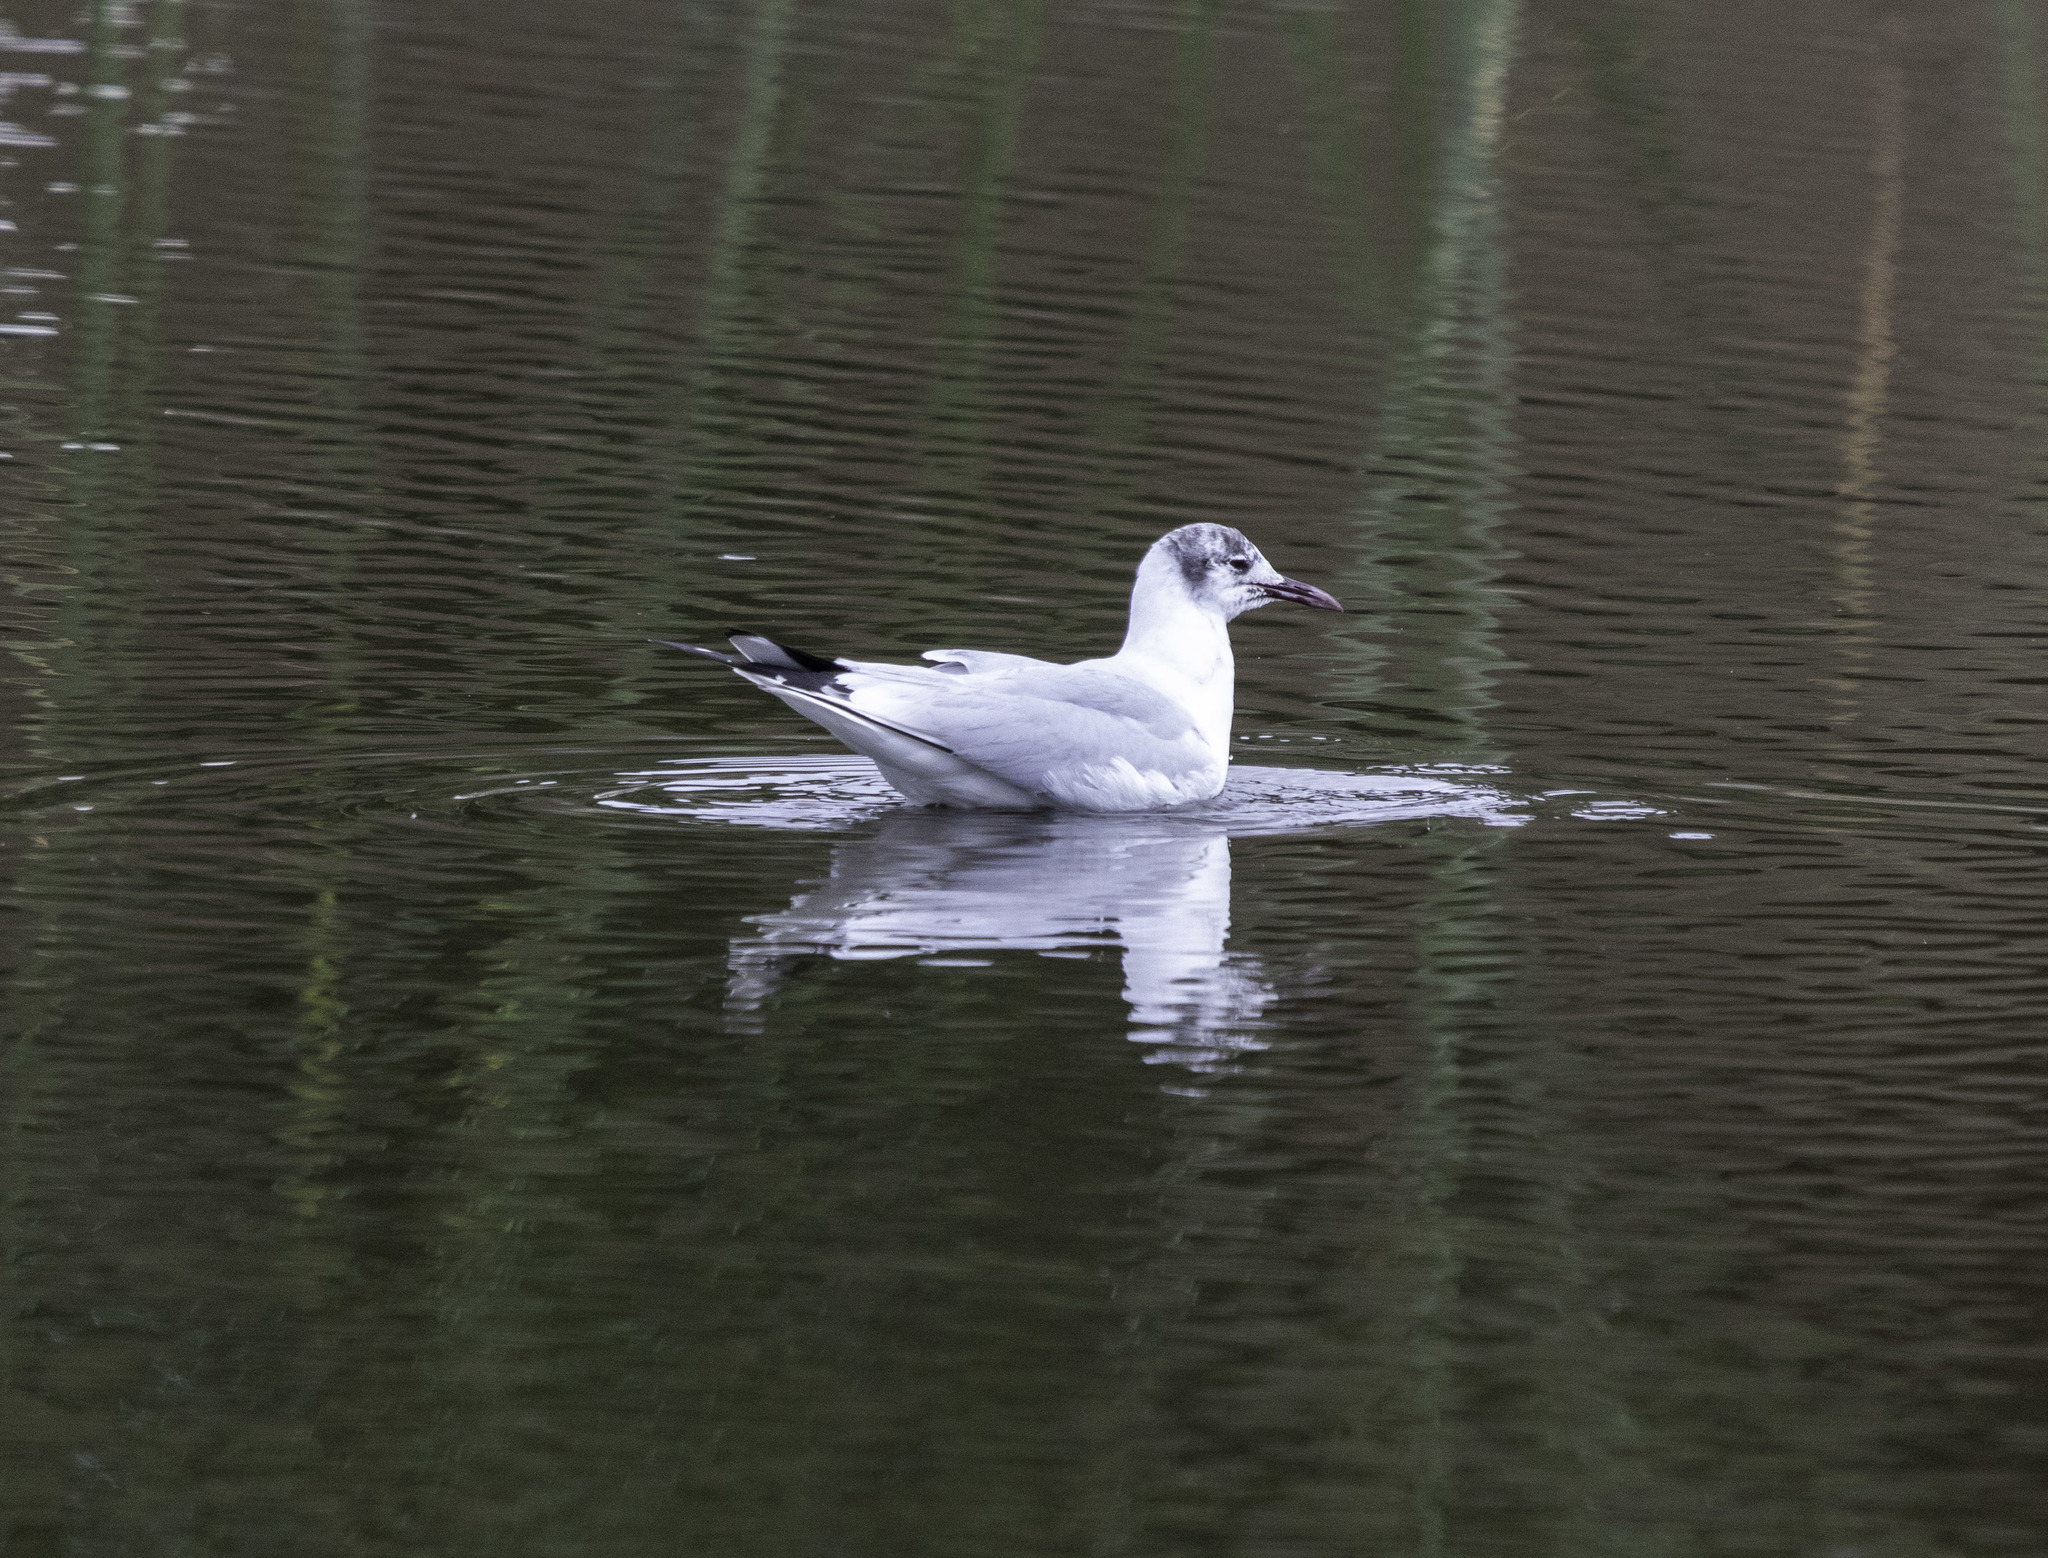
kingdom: Animalia
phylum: Chordata
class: Aves
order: Charadriiformes
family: Laridae
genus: Chroicocephalus
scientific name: Chroicocephalus ridibundus
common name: Black-headed gull
